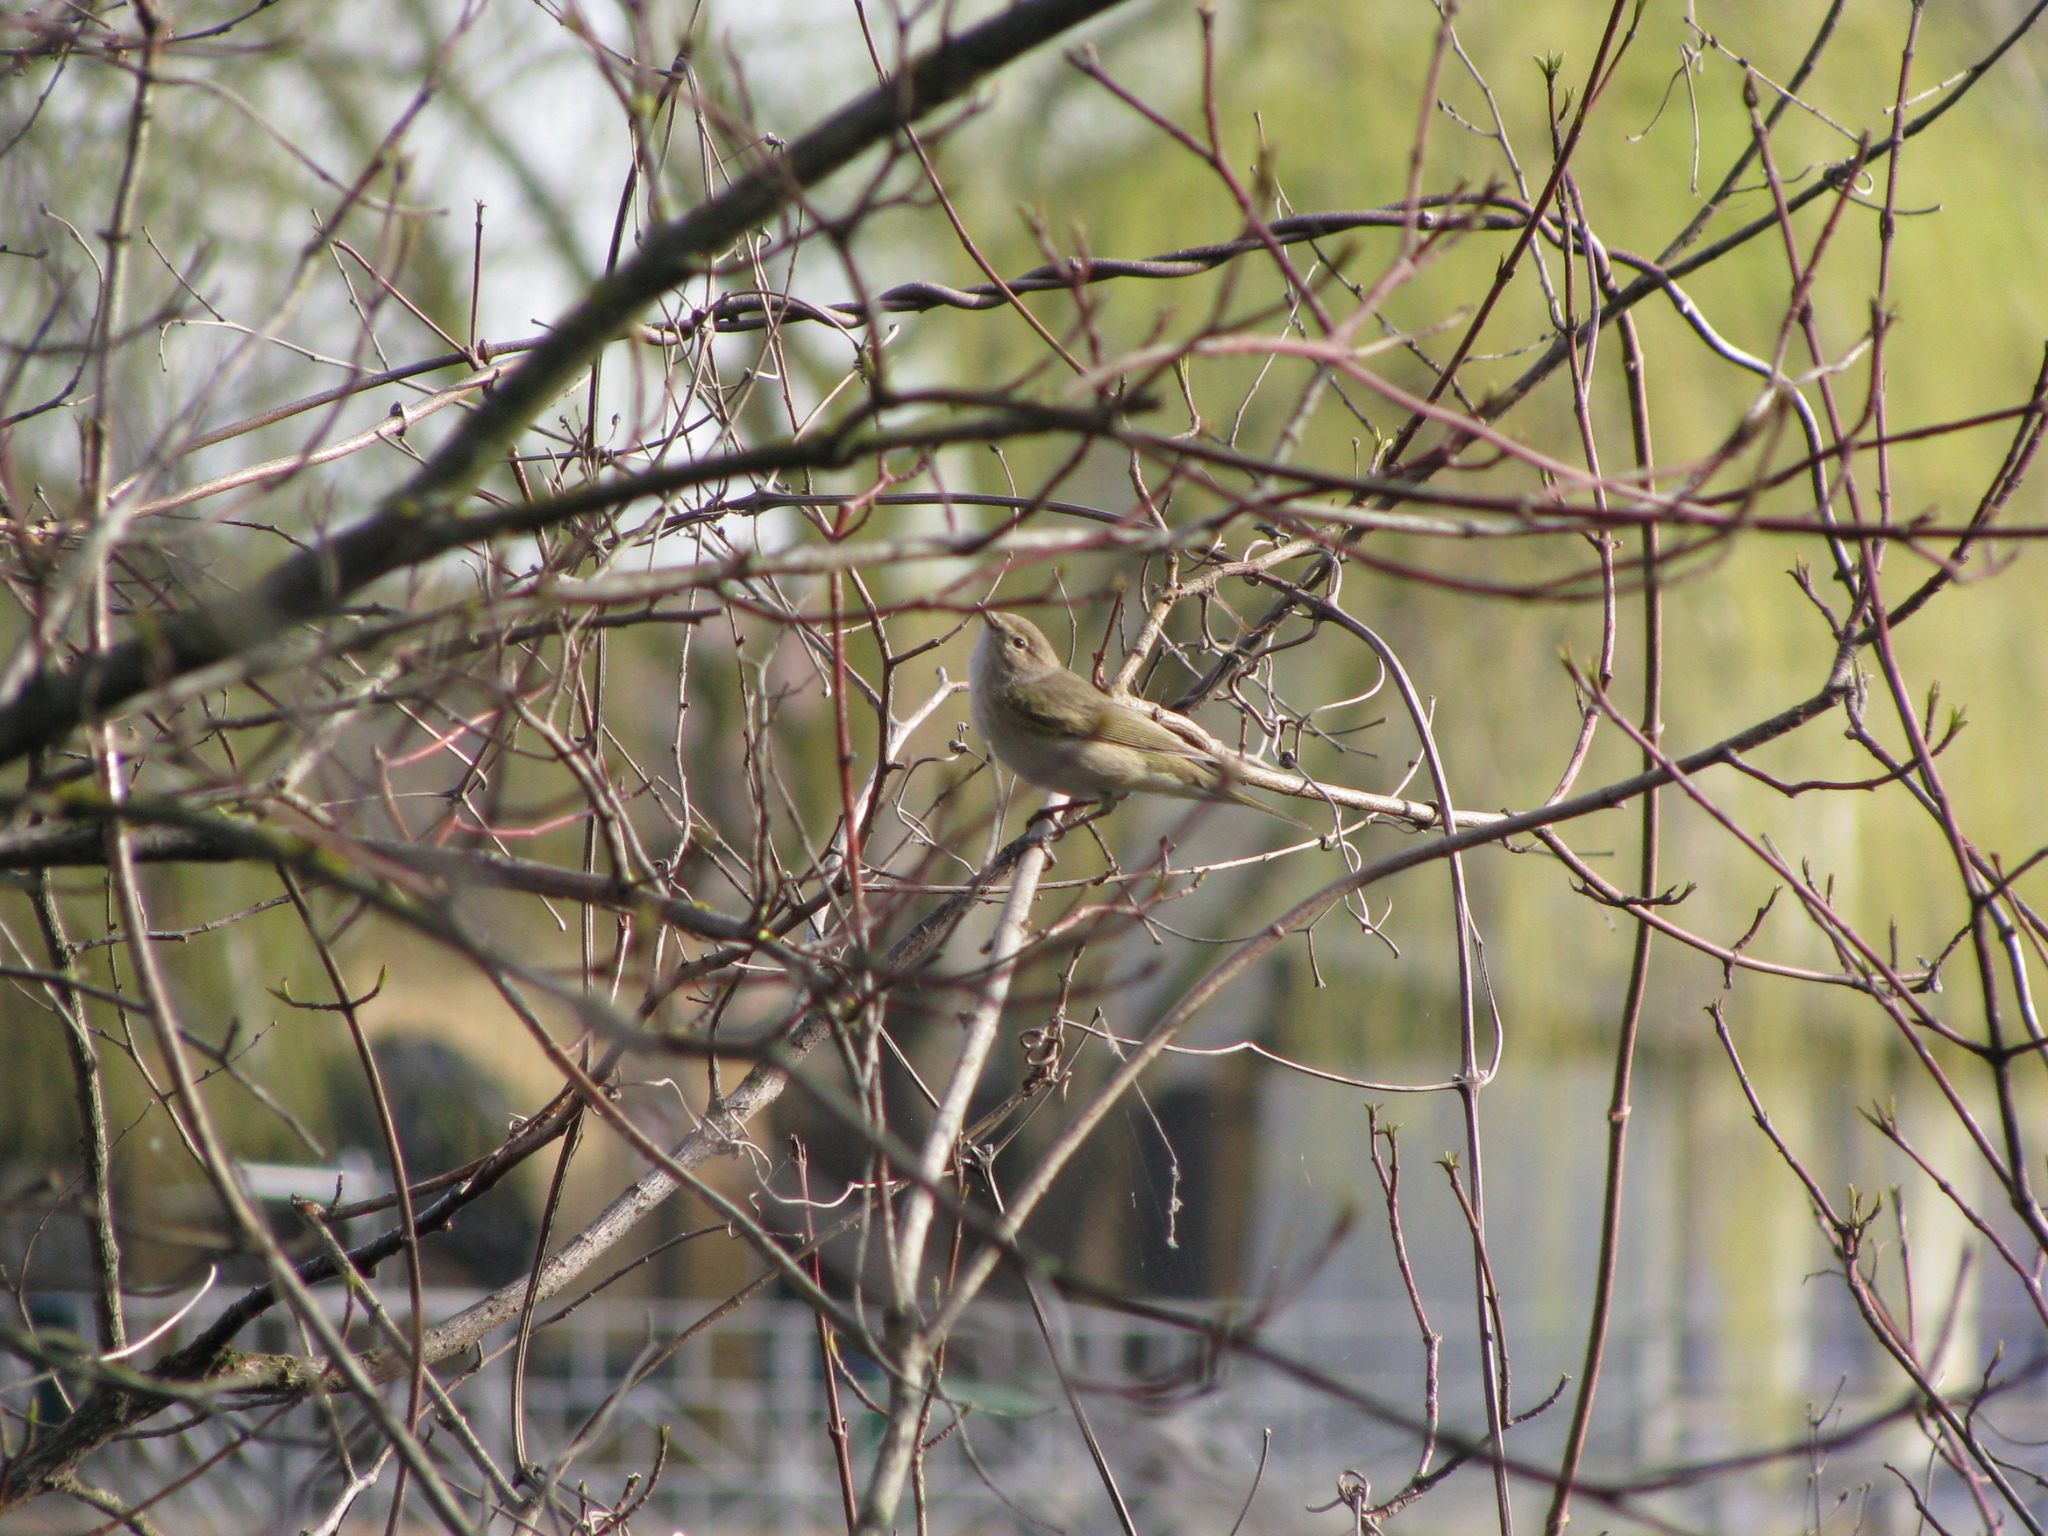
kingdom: Animalia
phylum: Chordata
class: Aves
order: Passeriformes
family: Phylloscopidae
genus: Phylloscopus
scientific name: Phylloscopus collybita
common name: Common chiffchaff
